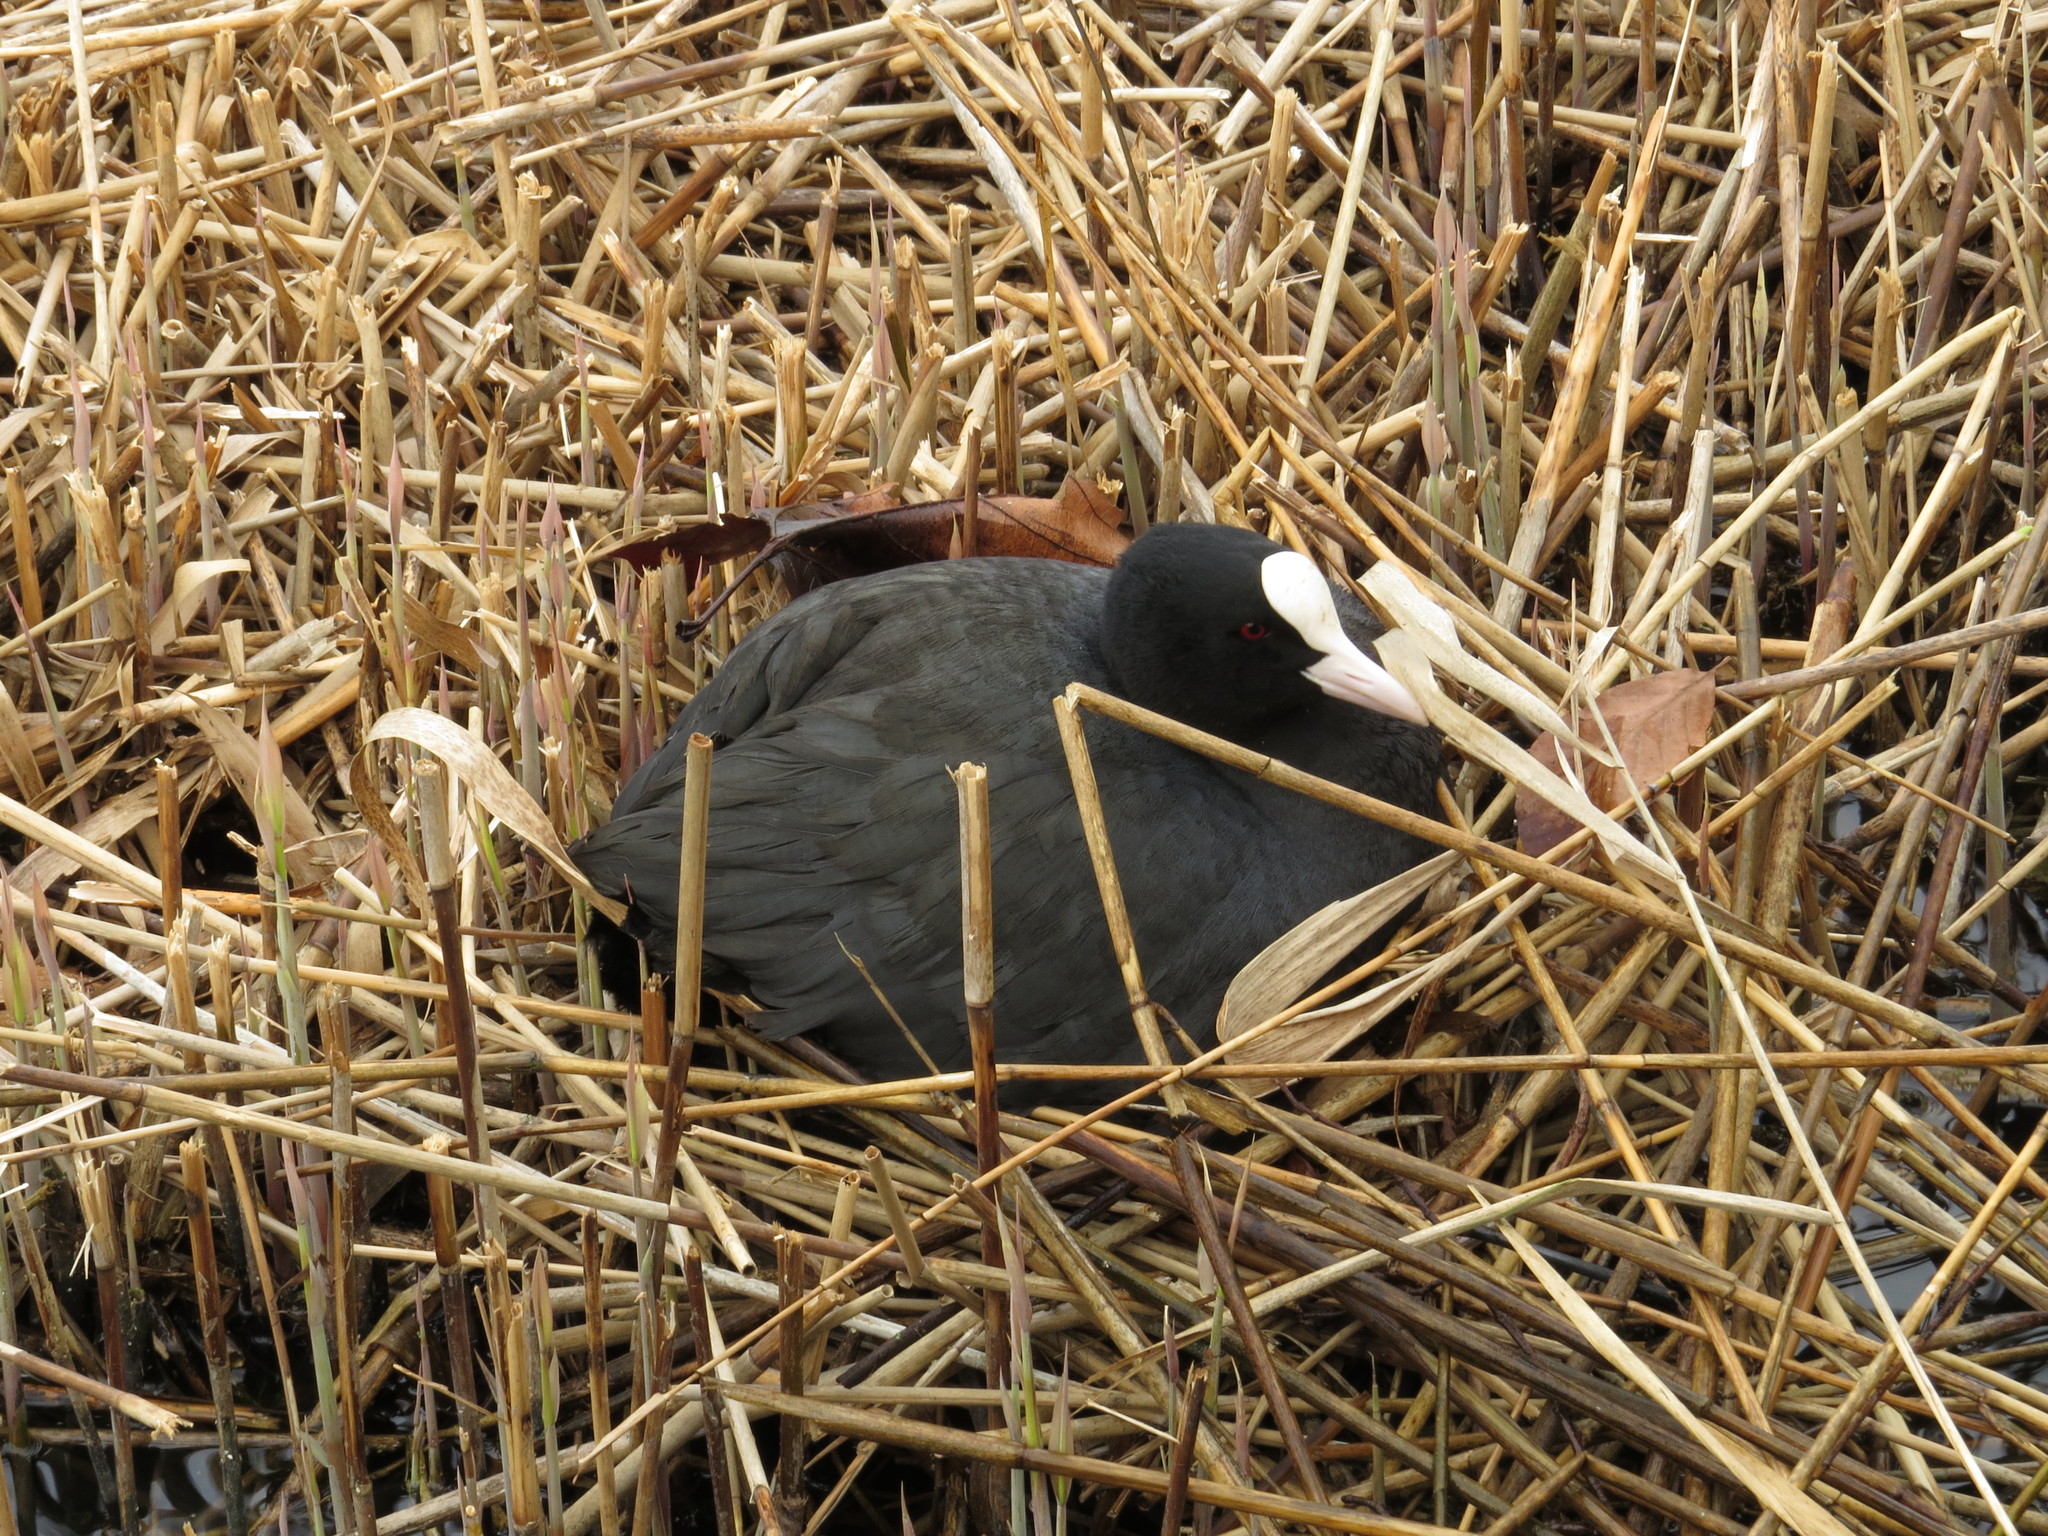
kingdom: Animalia
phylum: Chordata
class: Aves
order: Gruiformes
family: Rallidae
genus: Fulica
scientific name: Fulica atra
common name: Eurasian coot
